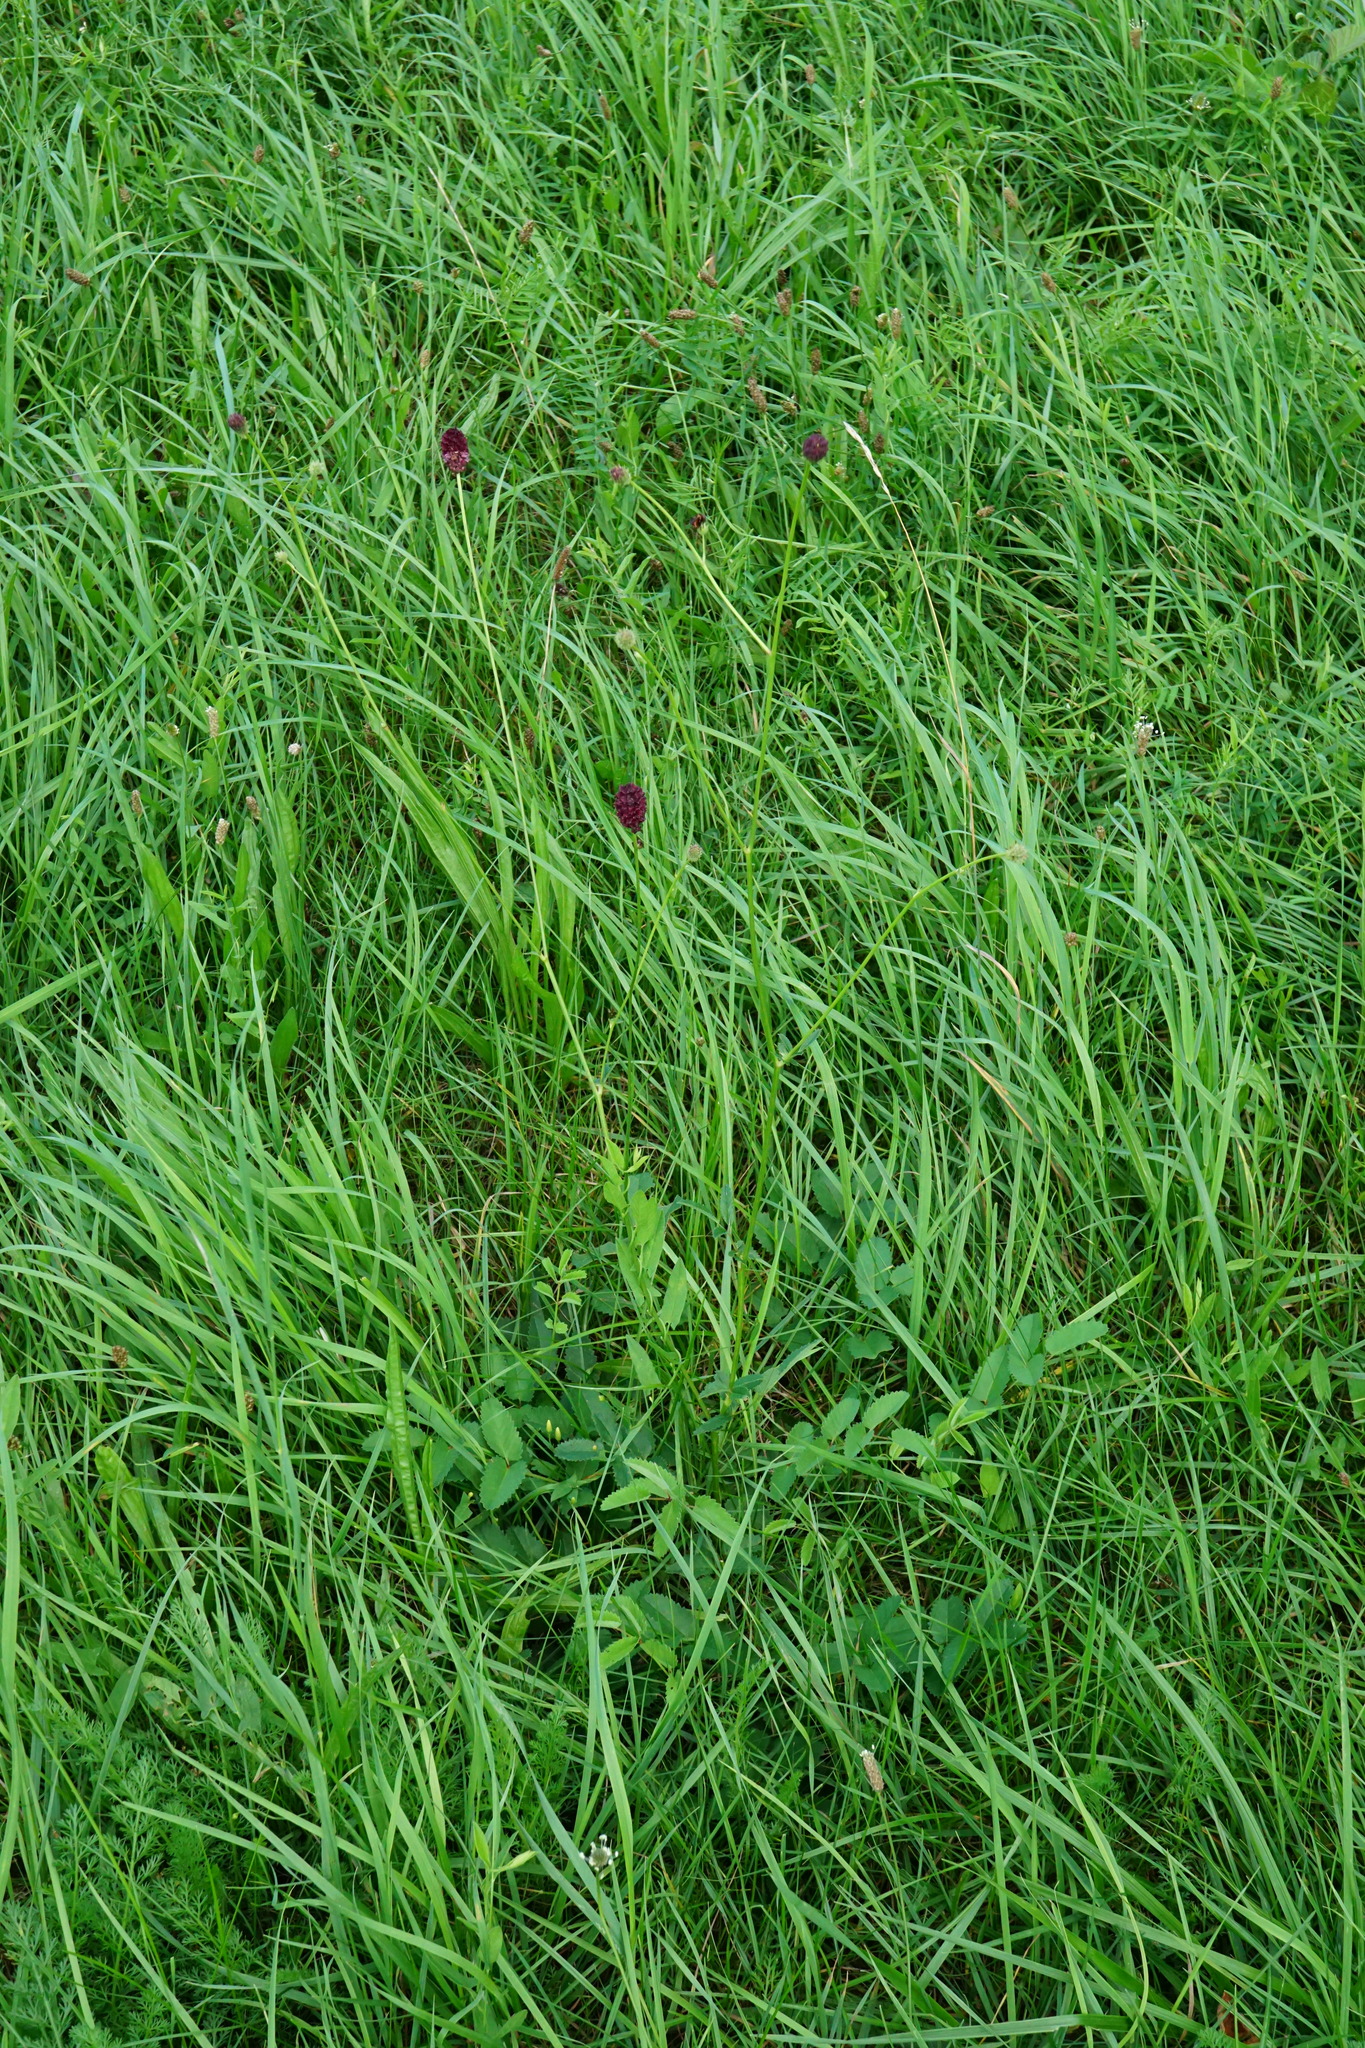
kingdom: Plantae
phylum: Tracheophyta
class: Magnoliopsida
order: Rosales
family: Rosaceae
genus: Sanguisorba
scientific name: Sanguisorba officinalis
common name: Great burnet
